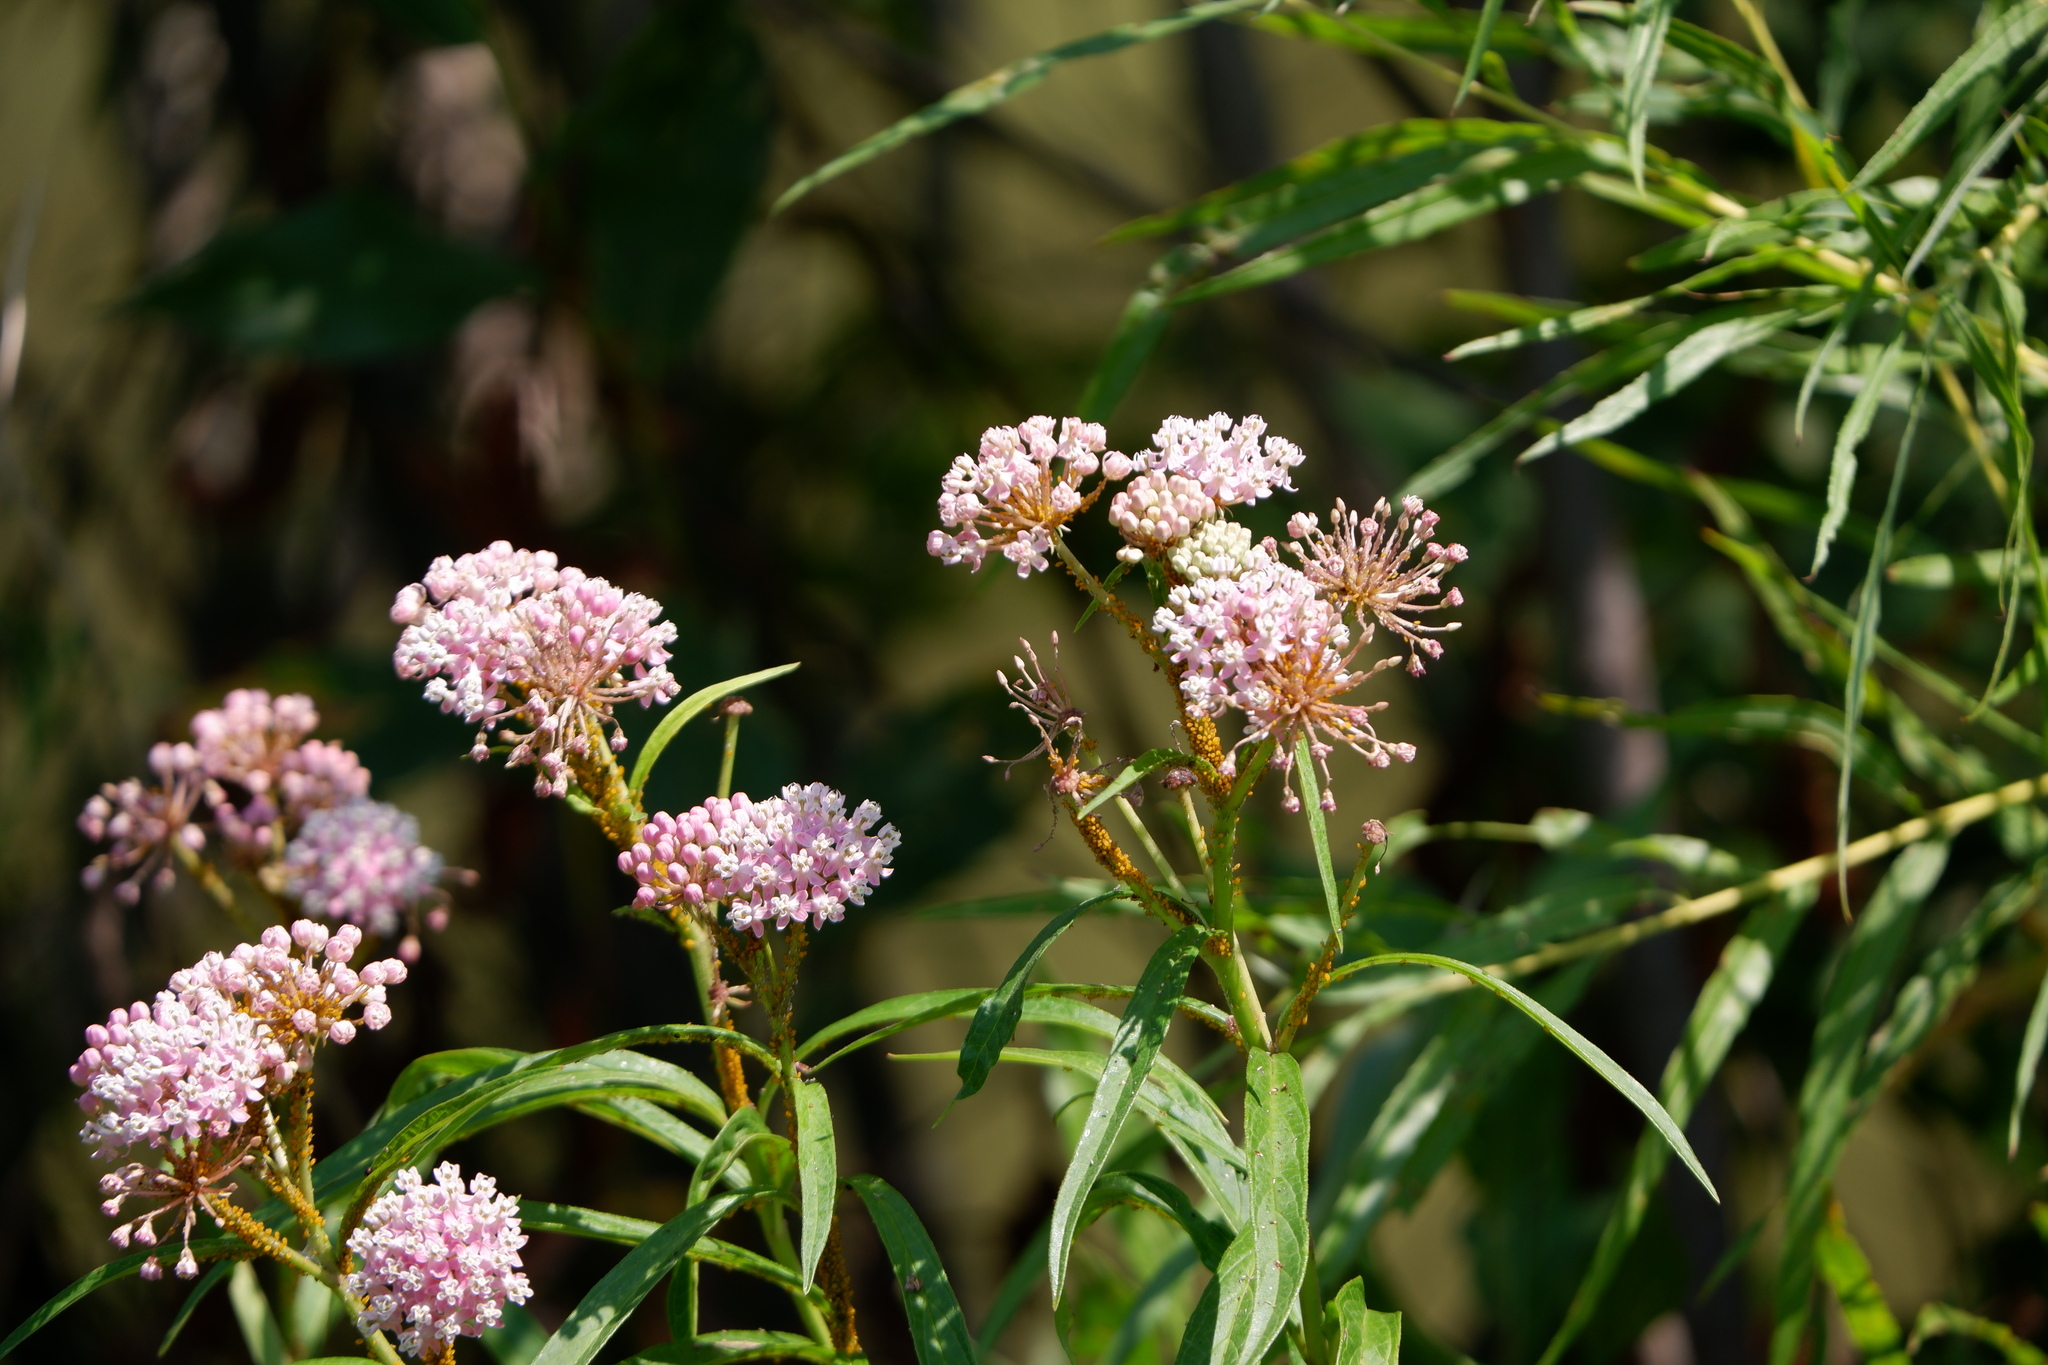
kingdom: Animalia
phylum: Arthropoda
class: Insecta
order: Hemiptera
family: Aphididae
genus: Aphis
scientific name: Aphis nerii
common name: Oleander aphid
